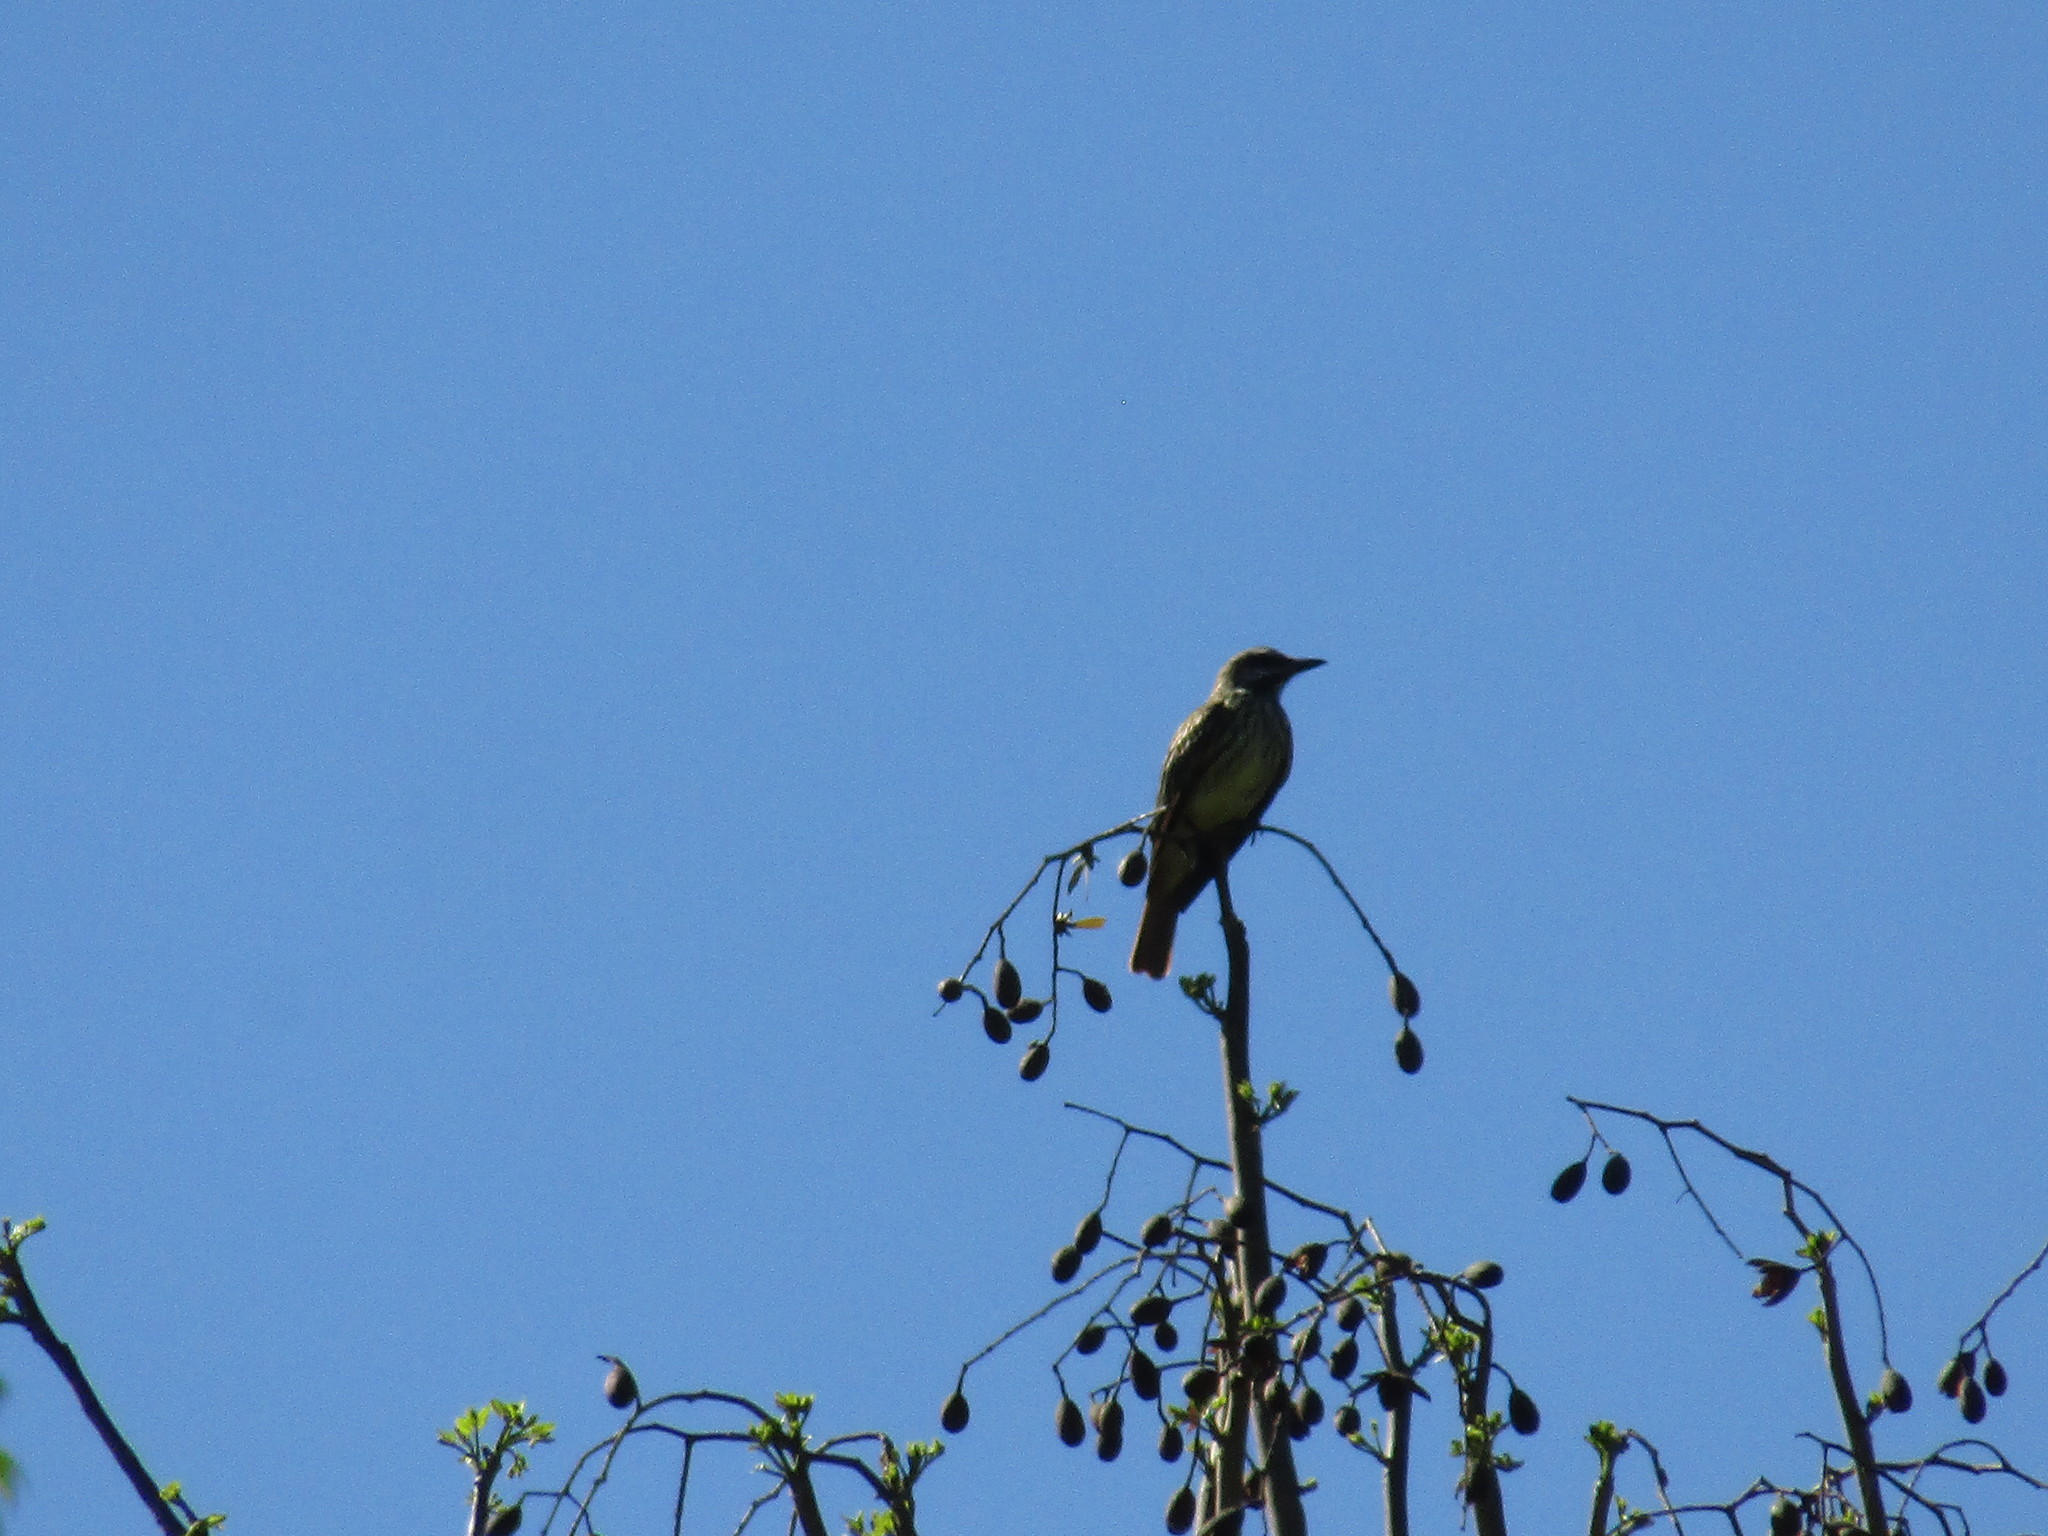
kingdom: Animalia
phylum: Chordata
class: Aves
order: Passeriformes
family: Tyrannidae
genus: Myiodynastes
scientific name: Myiodynastes luteiventris
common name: Sulphur-bellied flycatcher
